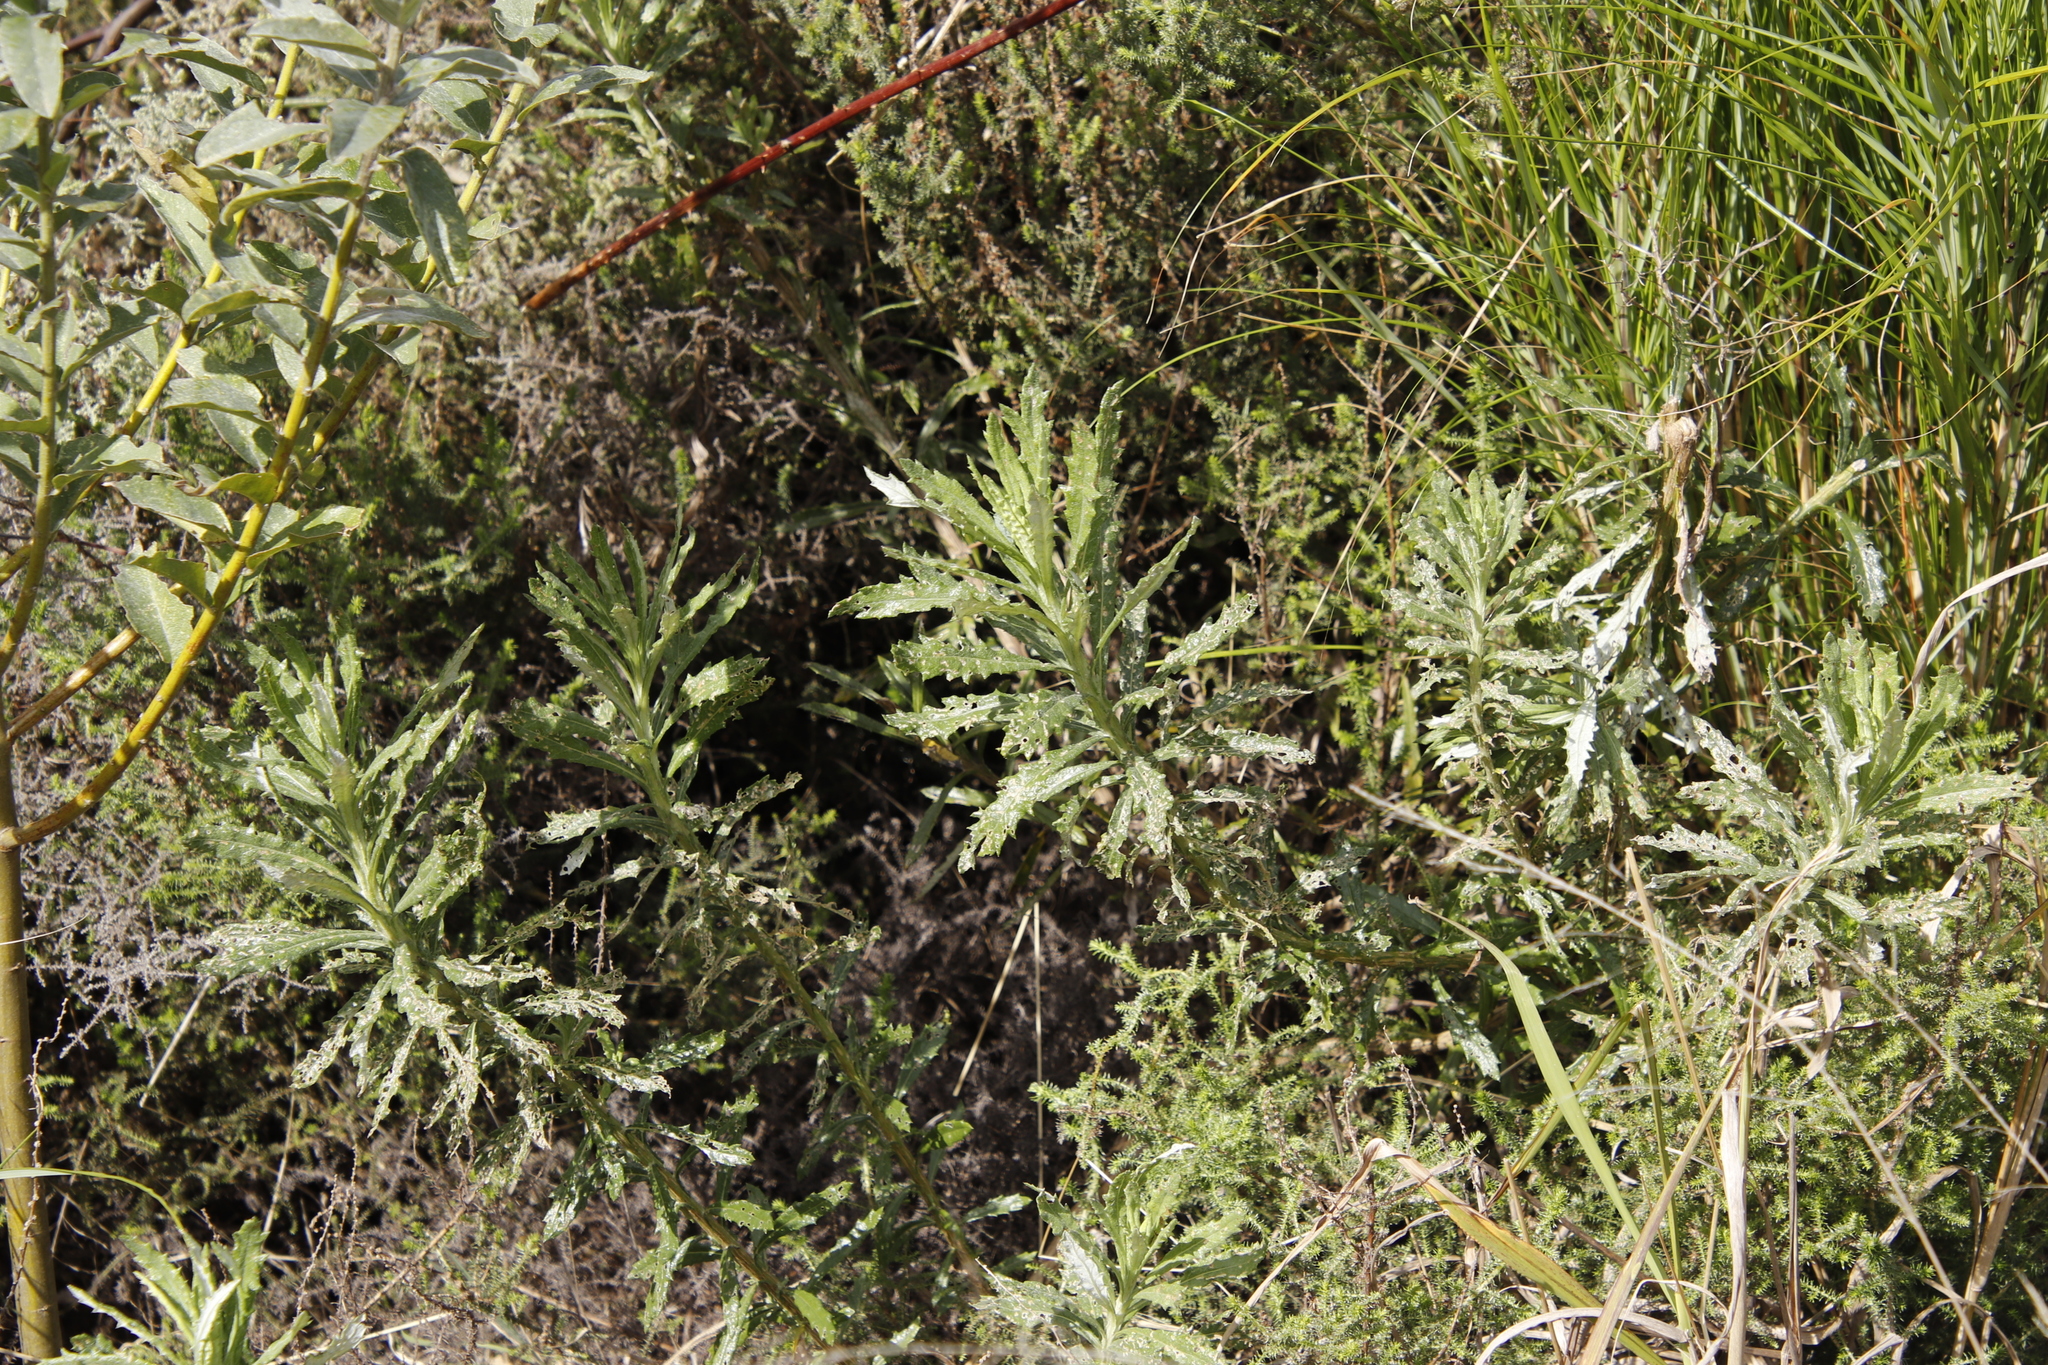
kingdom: Plantae
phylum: Tracheophyta
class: Magnoliopsida
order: Asterales
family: Asteraceae
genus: Senecio
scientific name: Senecio pterophorus
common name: Shoddy ragwort
